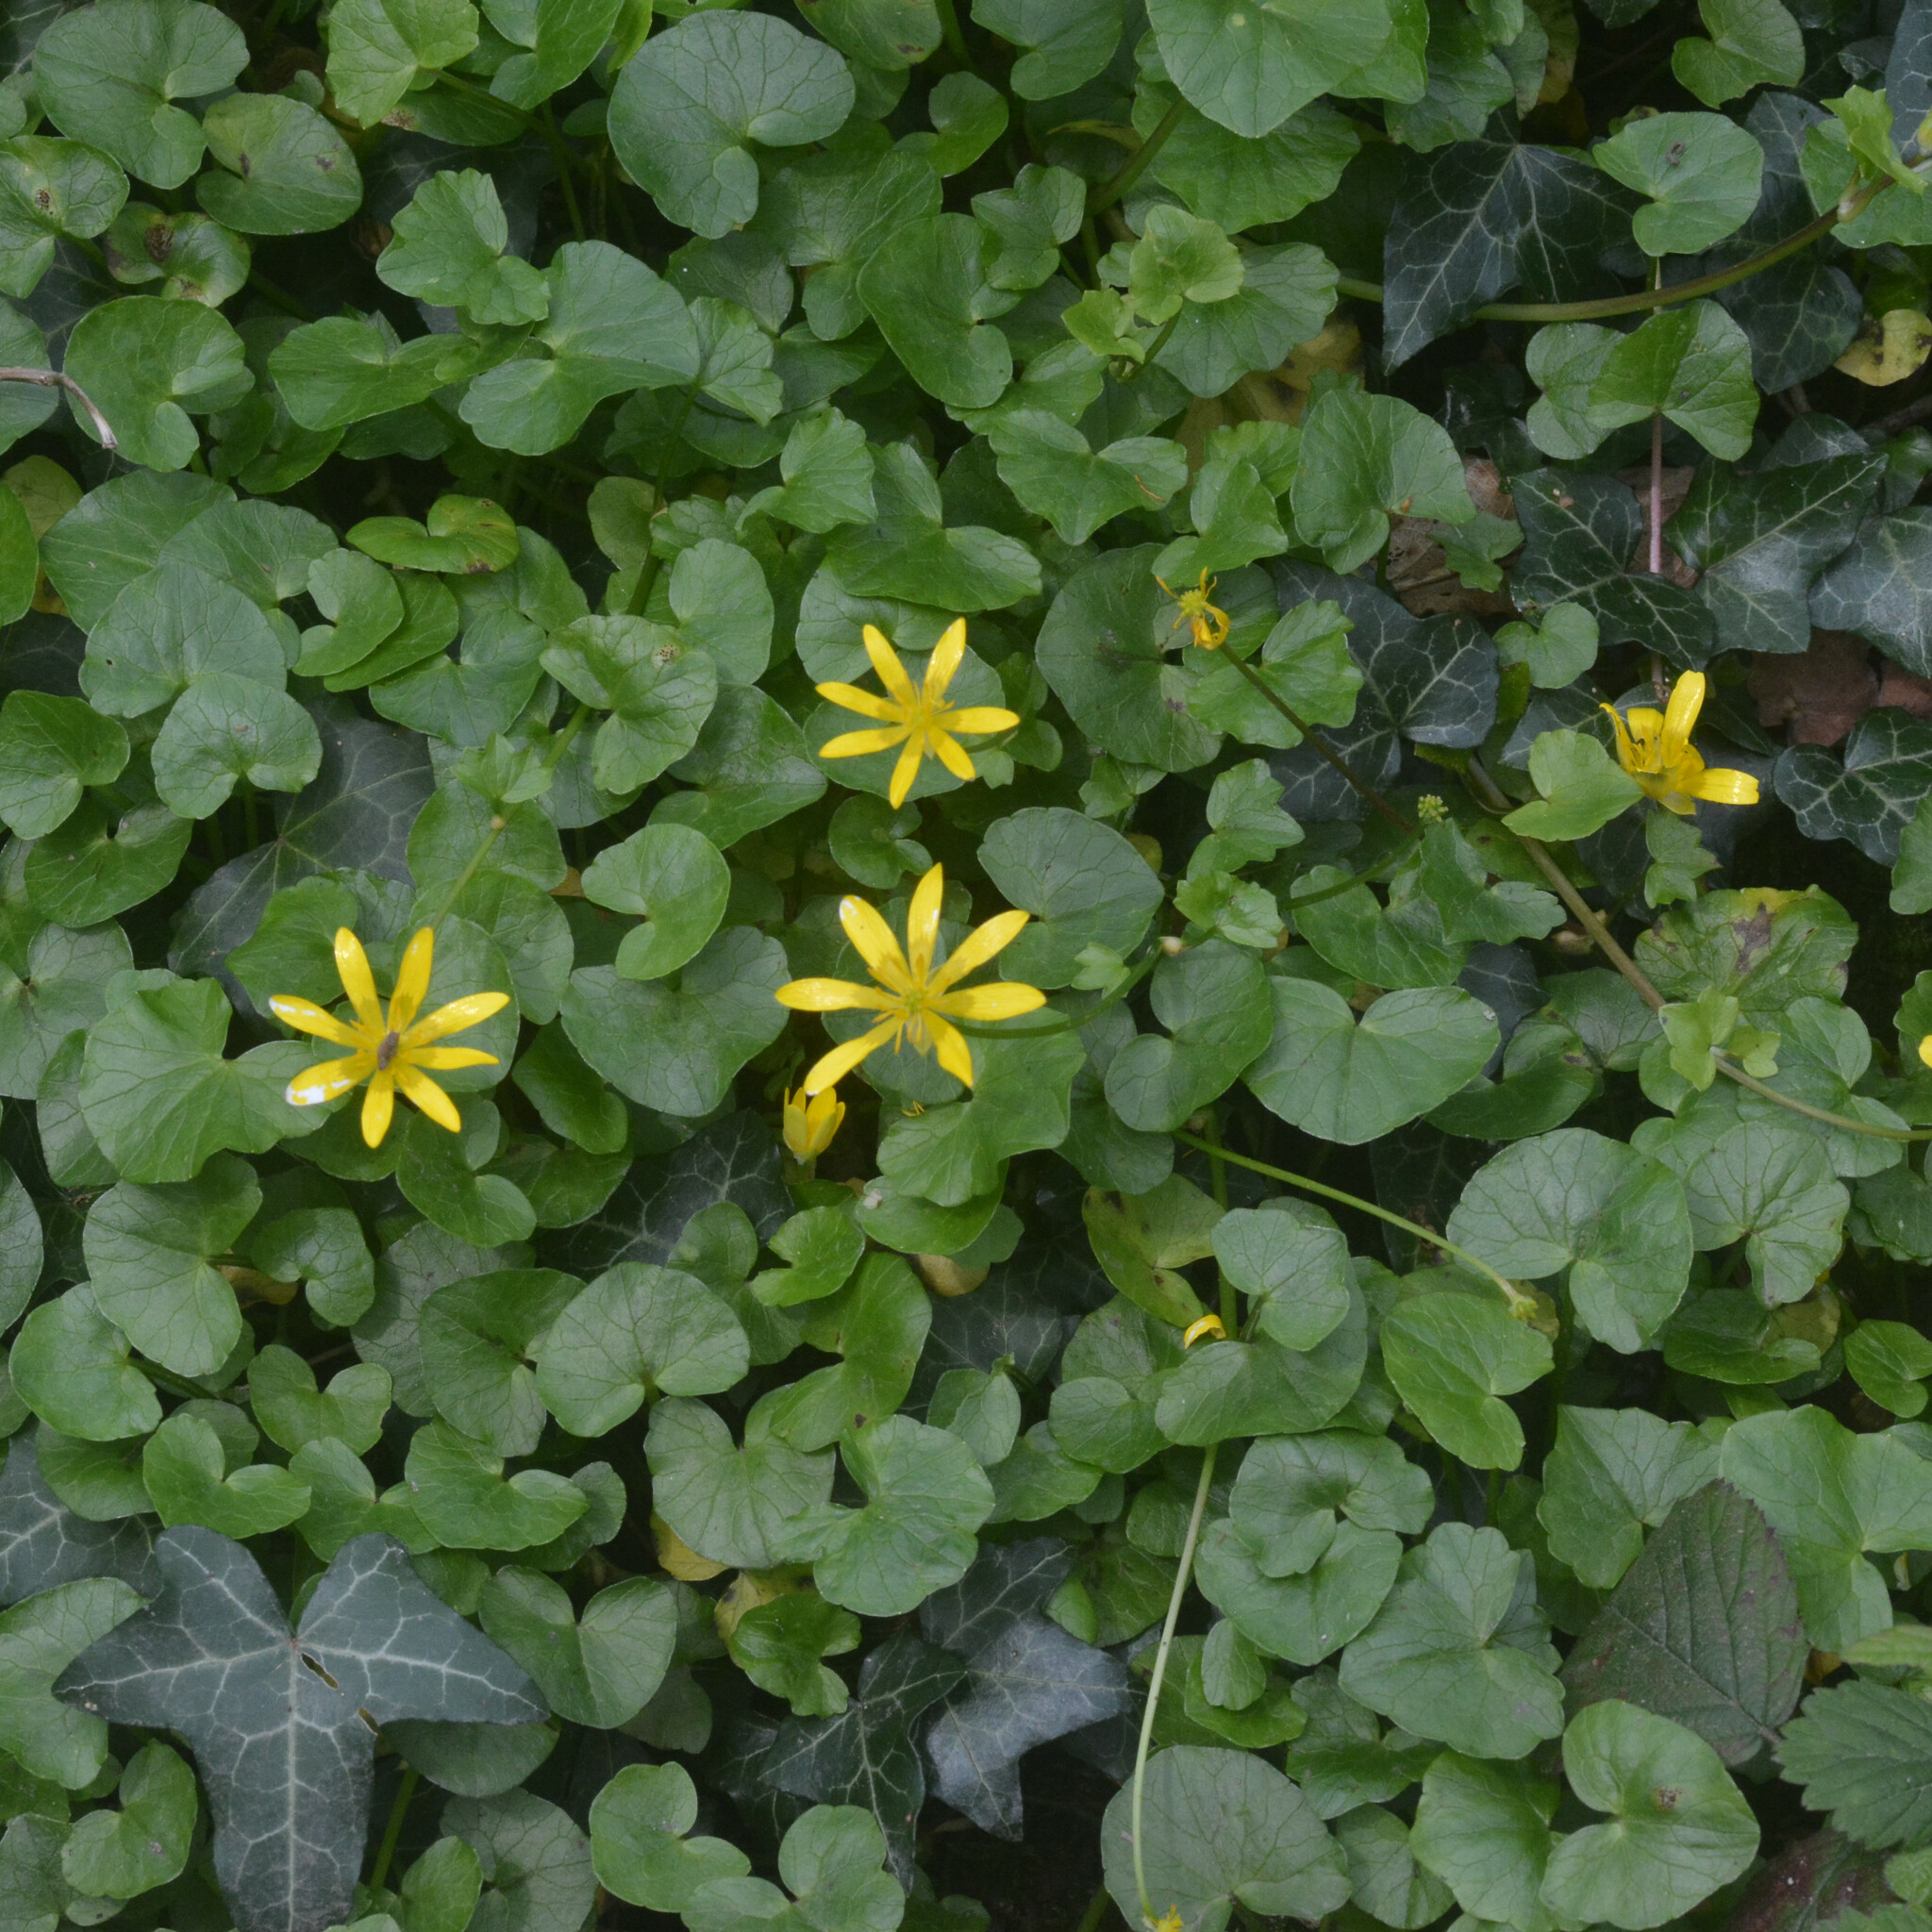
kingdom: Plantae
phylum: Tracheophyta
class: Magnoliopsida
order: Ranunculales
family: Ranunculaceae
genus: Ficaria
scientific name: Ficaria verna
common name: Lesser celandine
